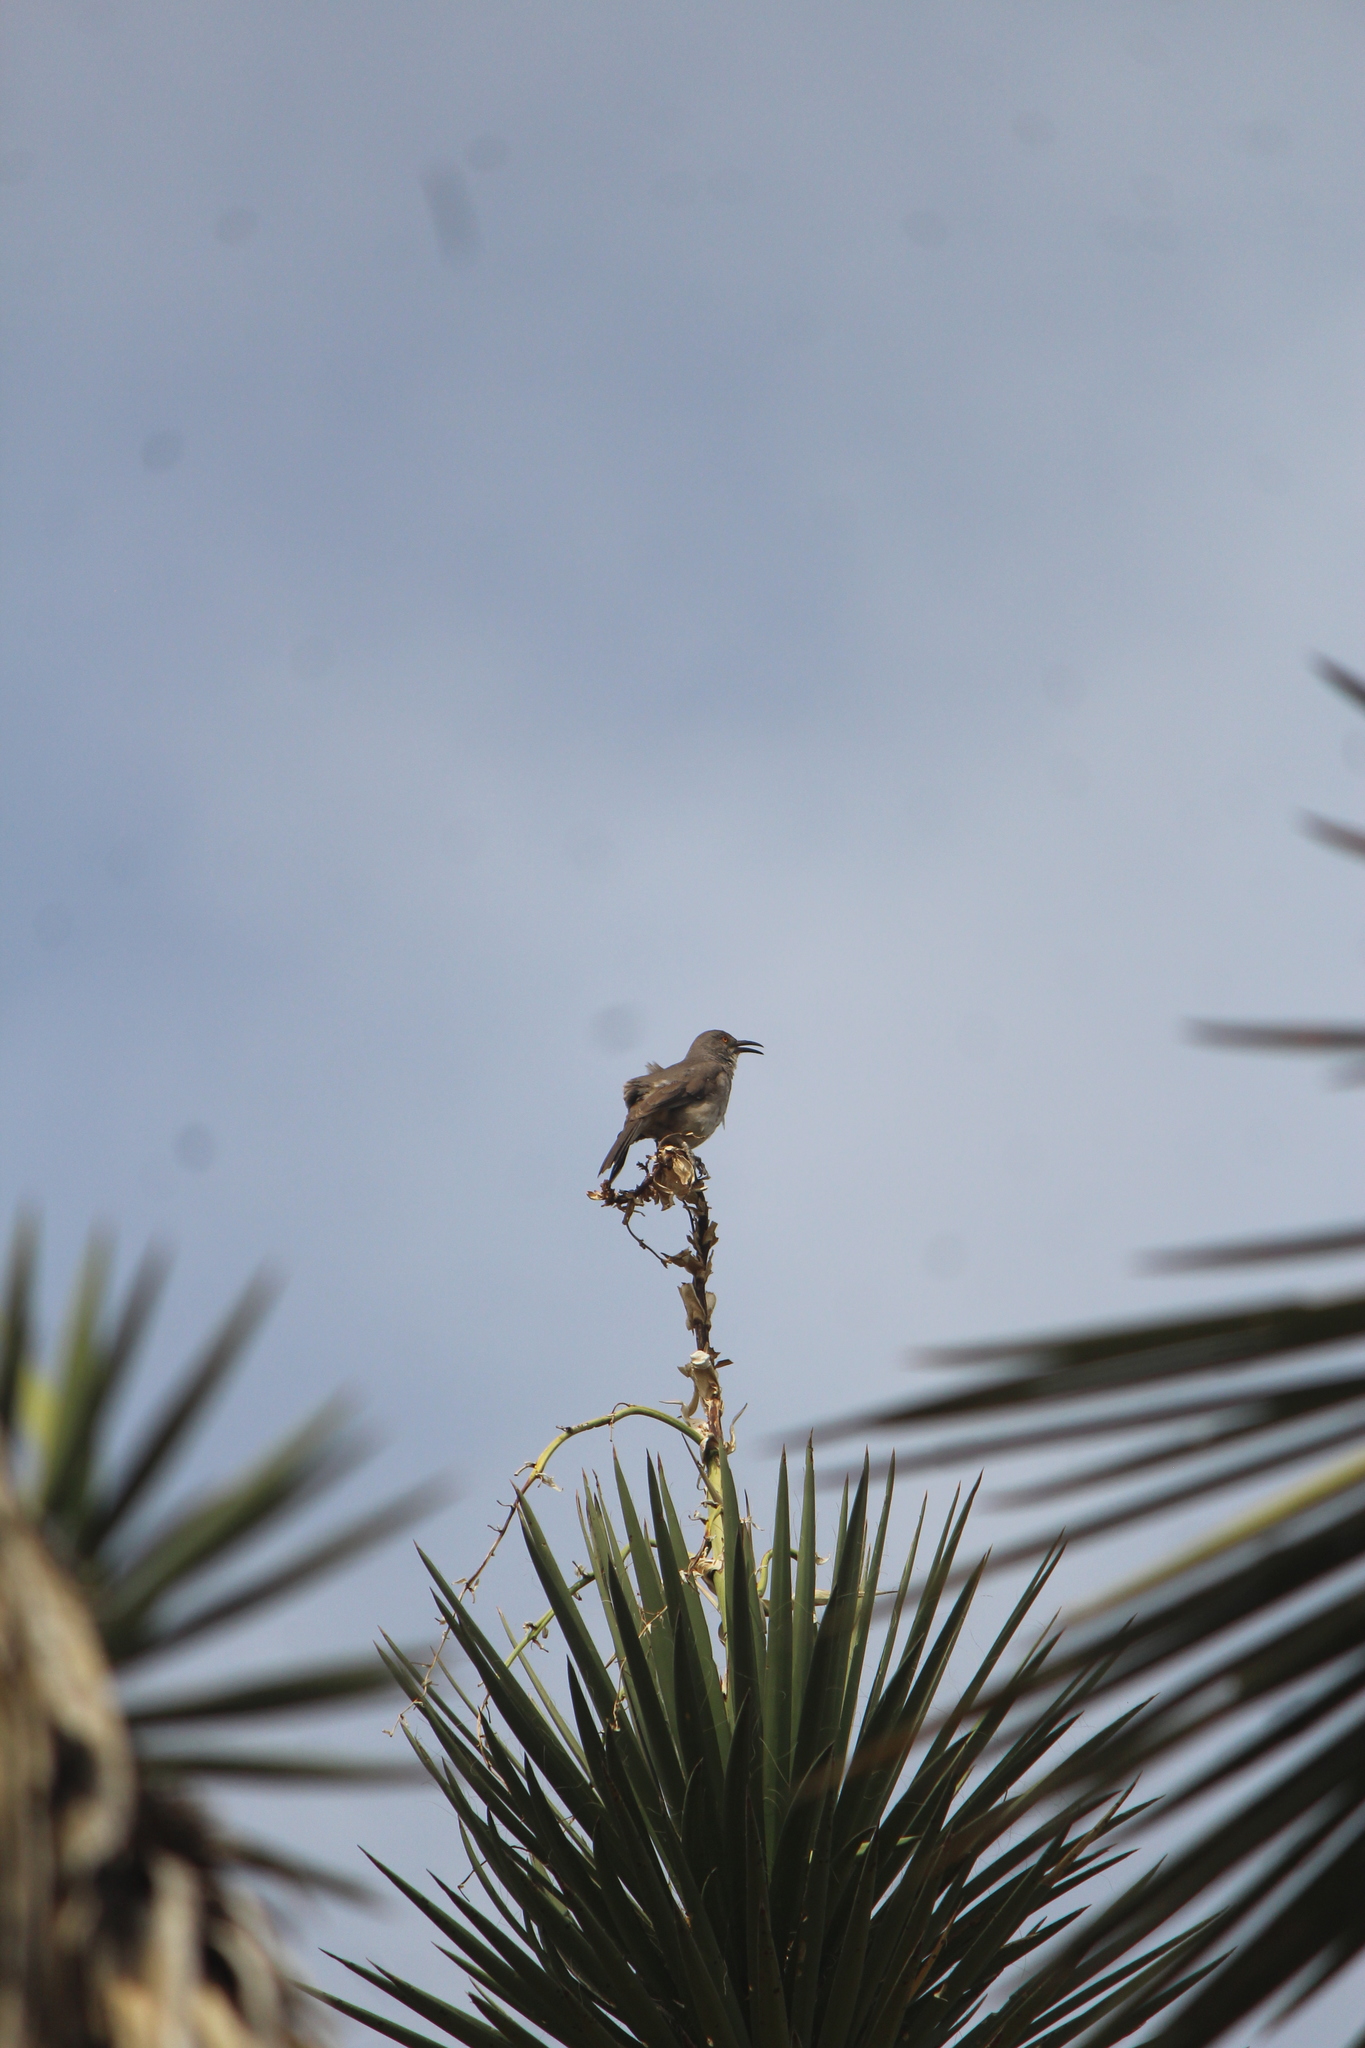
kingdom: Animalia
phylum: Chordata
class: Aves
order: Passeriformes
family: Mimidae
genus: Toxostoma
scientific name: Toxostoma curvirostre
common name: Curve-billed thrasher
